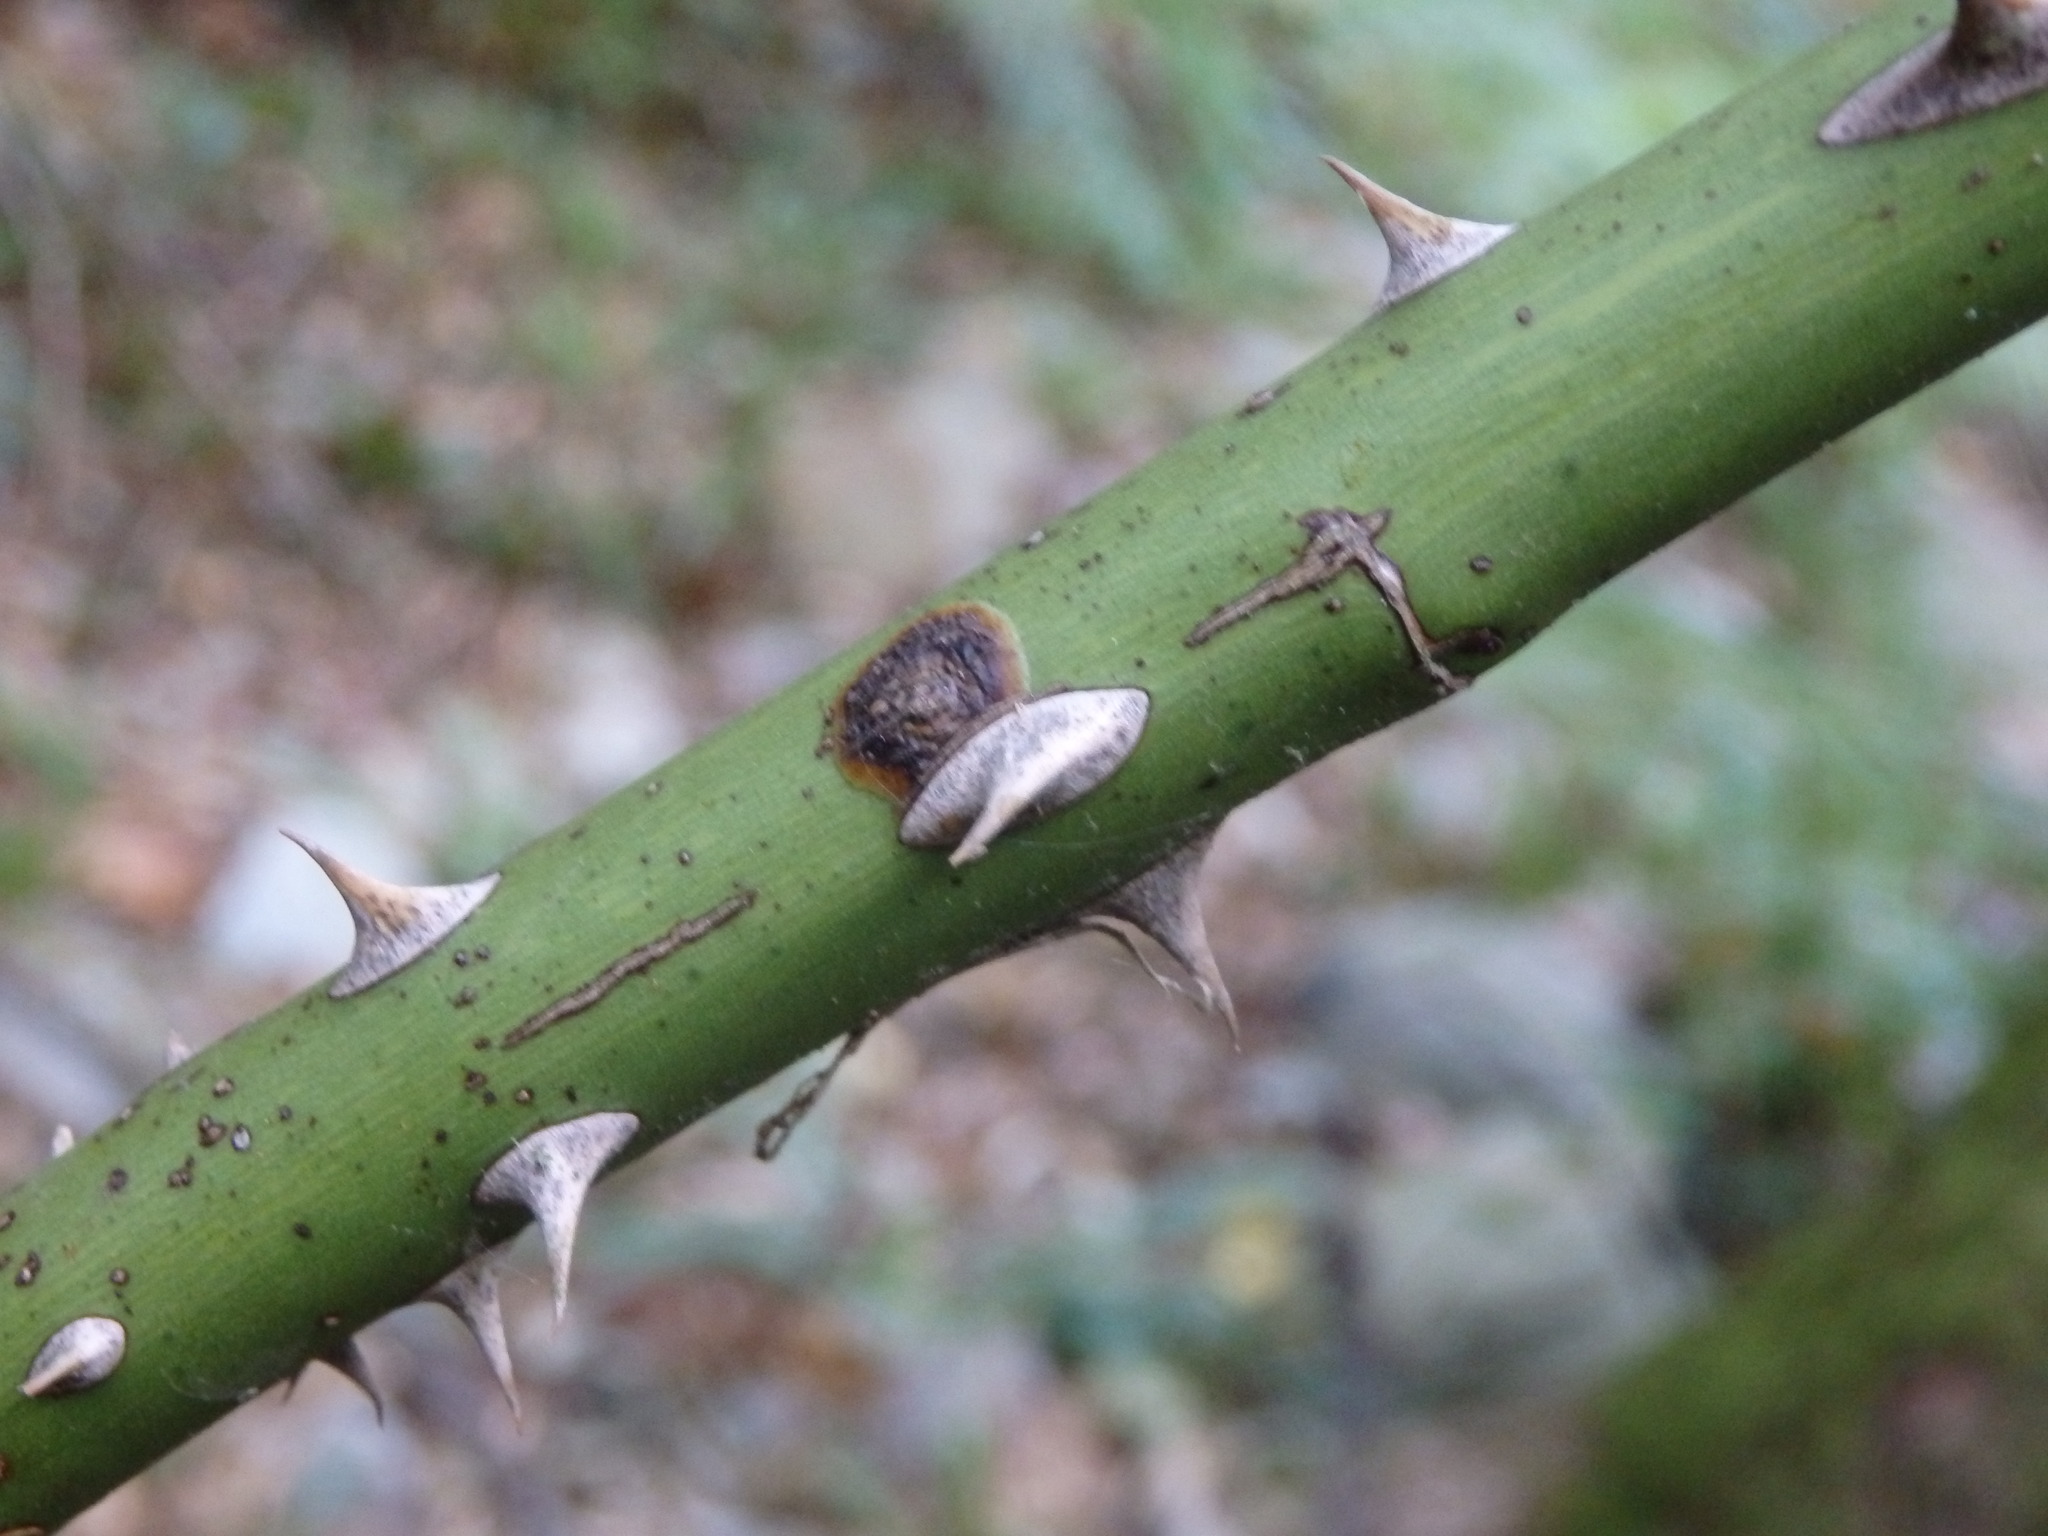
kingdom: Plantae
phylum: Tracheophyta
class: Magnoliopsida
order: Rosales
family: Rosaceae
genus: Rosa
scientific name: Rosa canina
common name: Dog rose
